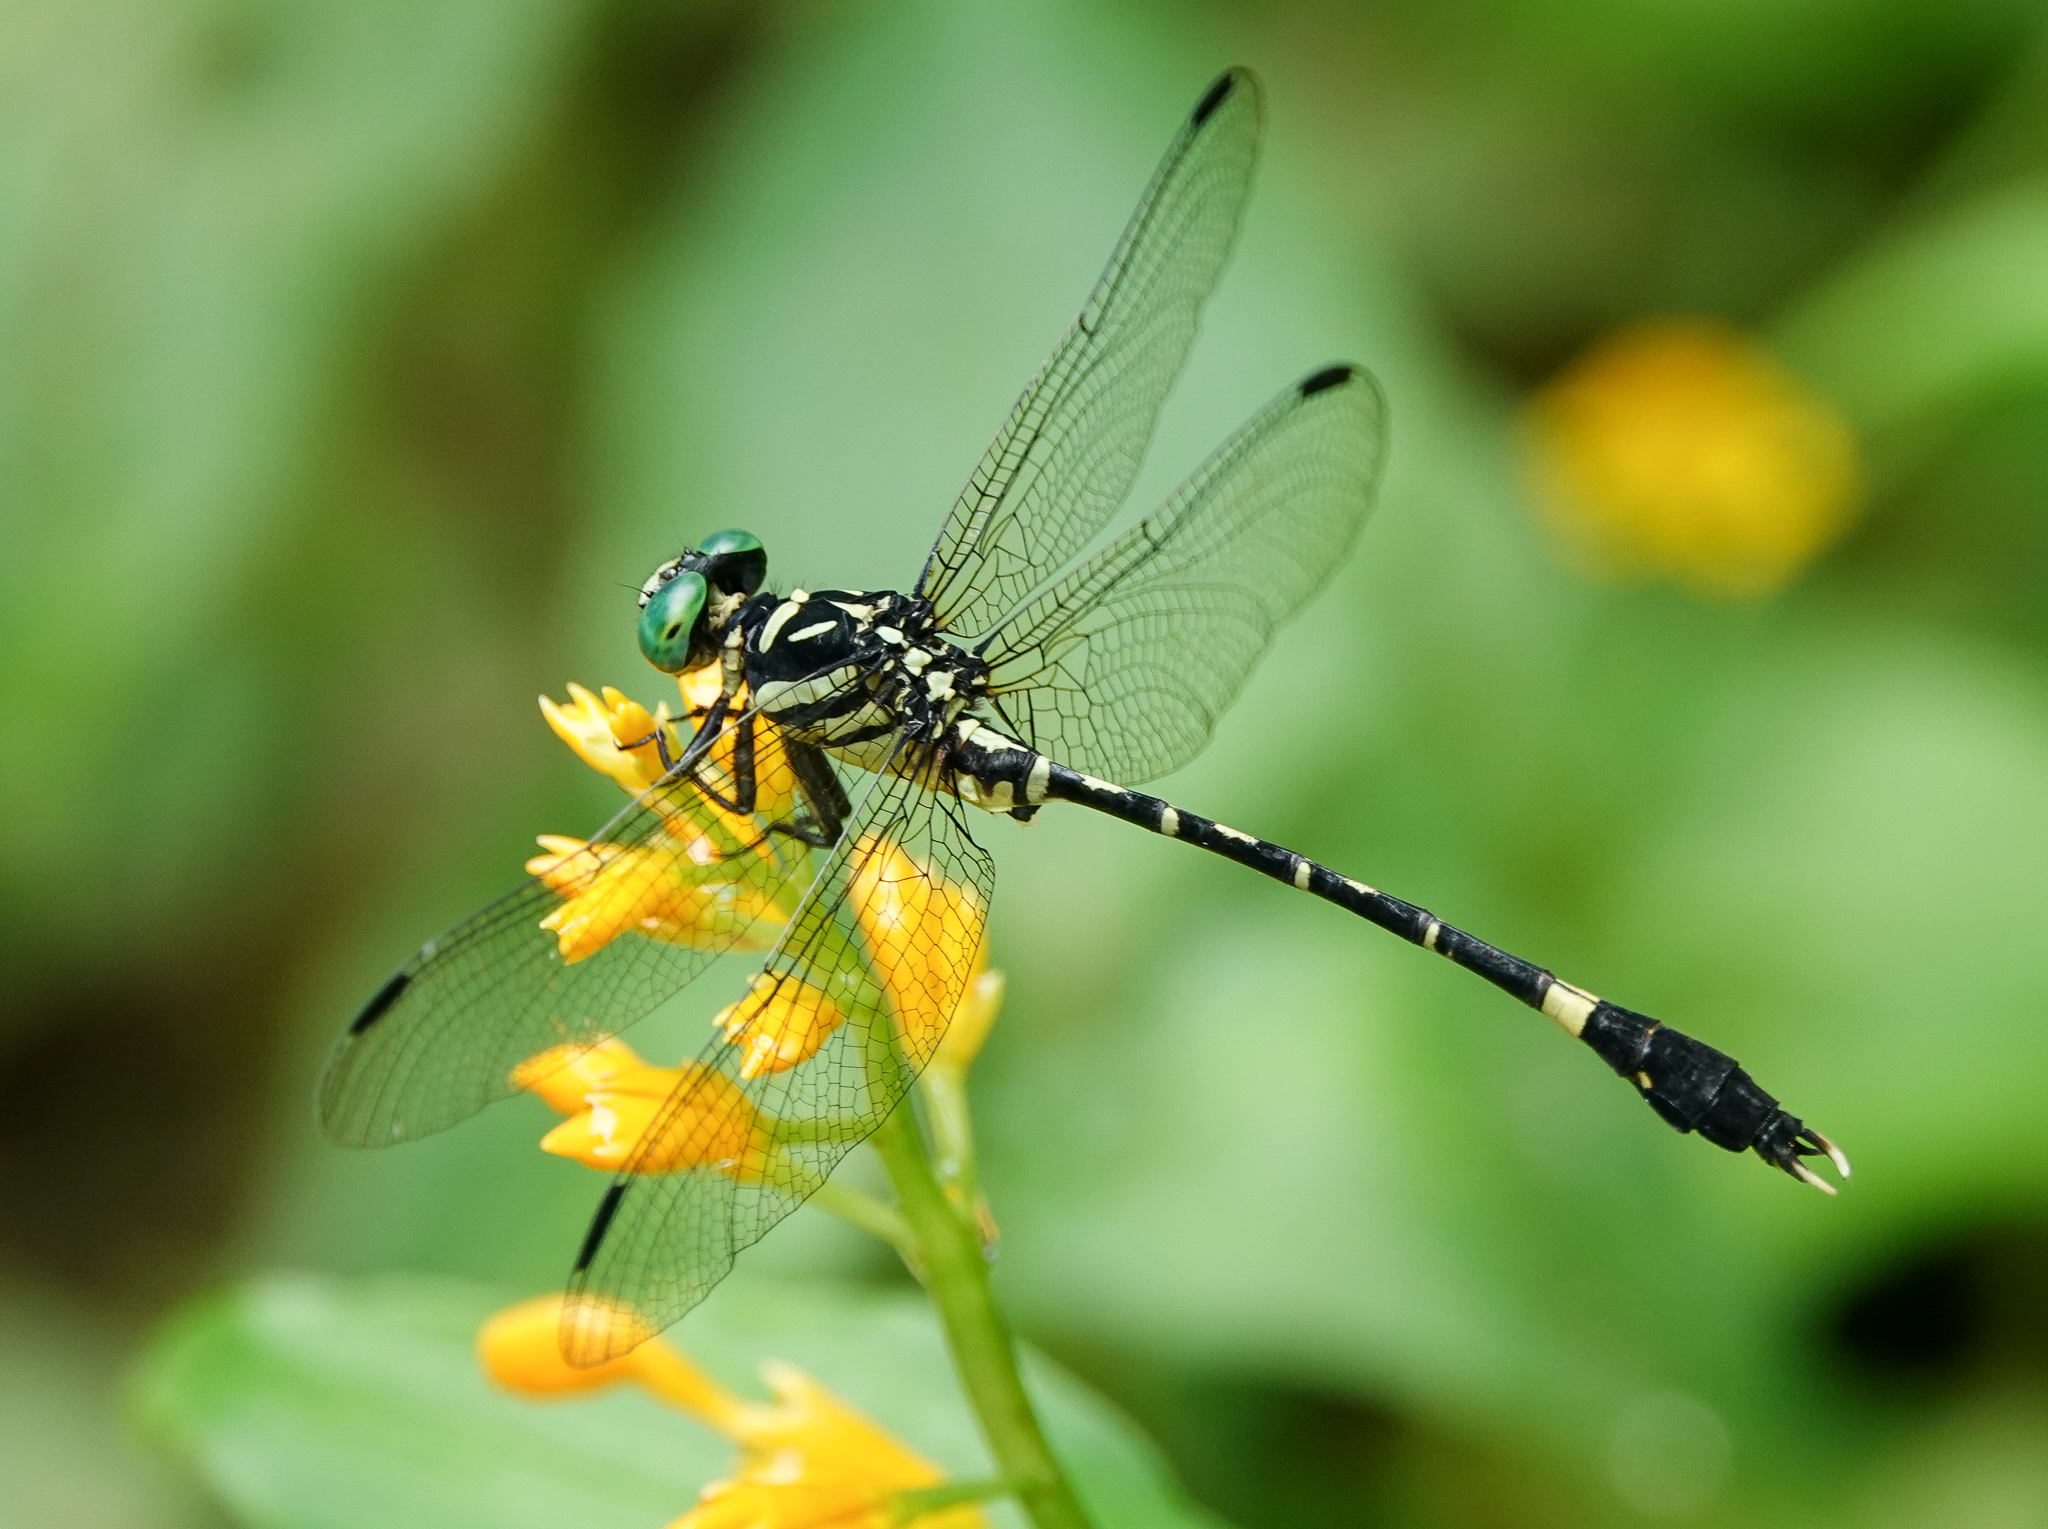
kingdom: Animalia
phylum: Arthropoda
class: Insecta
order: Odonata
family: Gomphidae
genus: Orientogomphus
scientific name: Orientogomphus indicus
